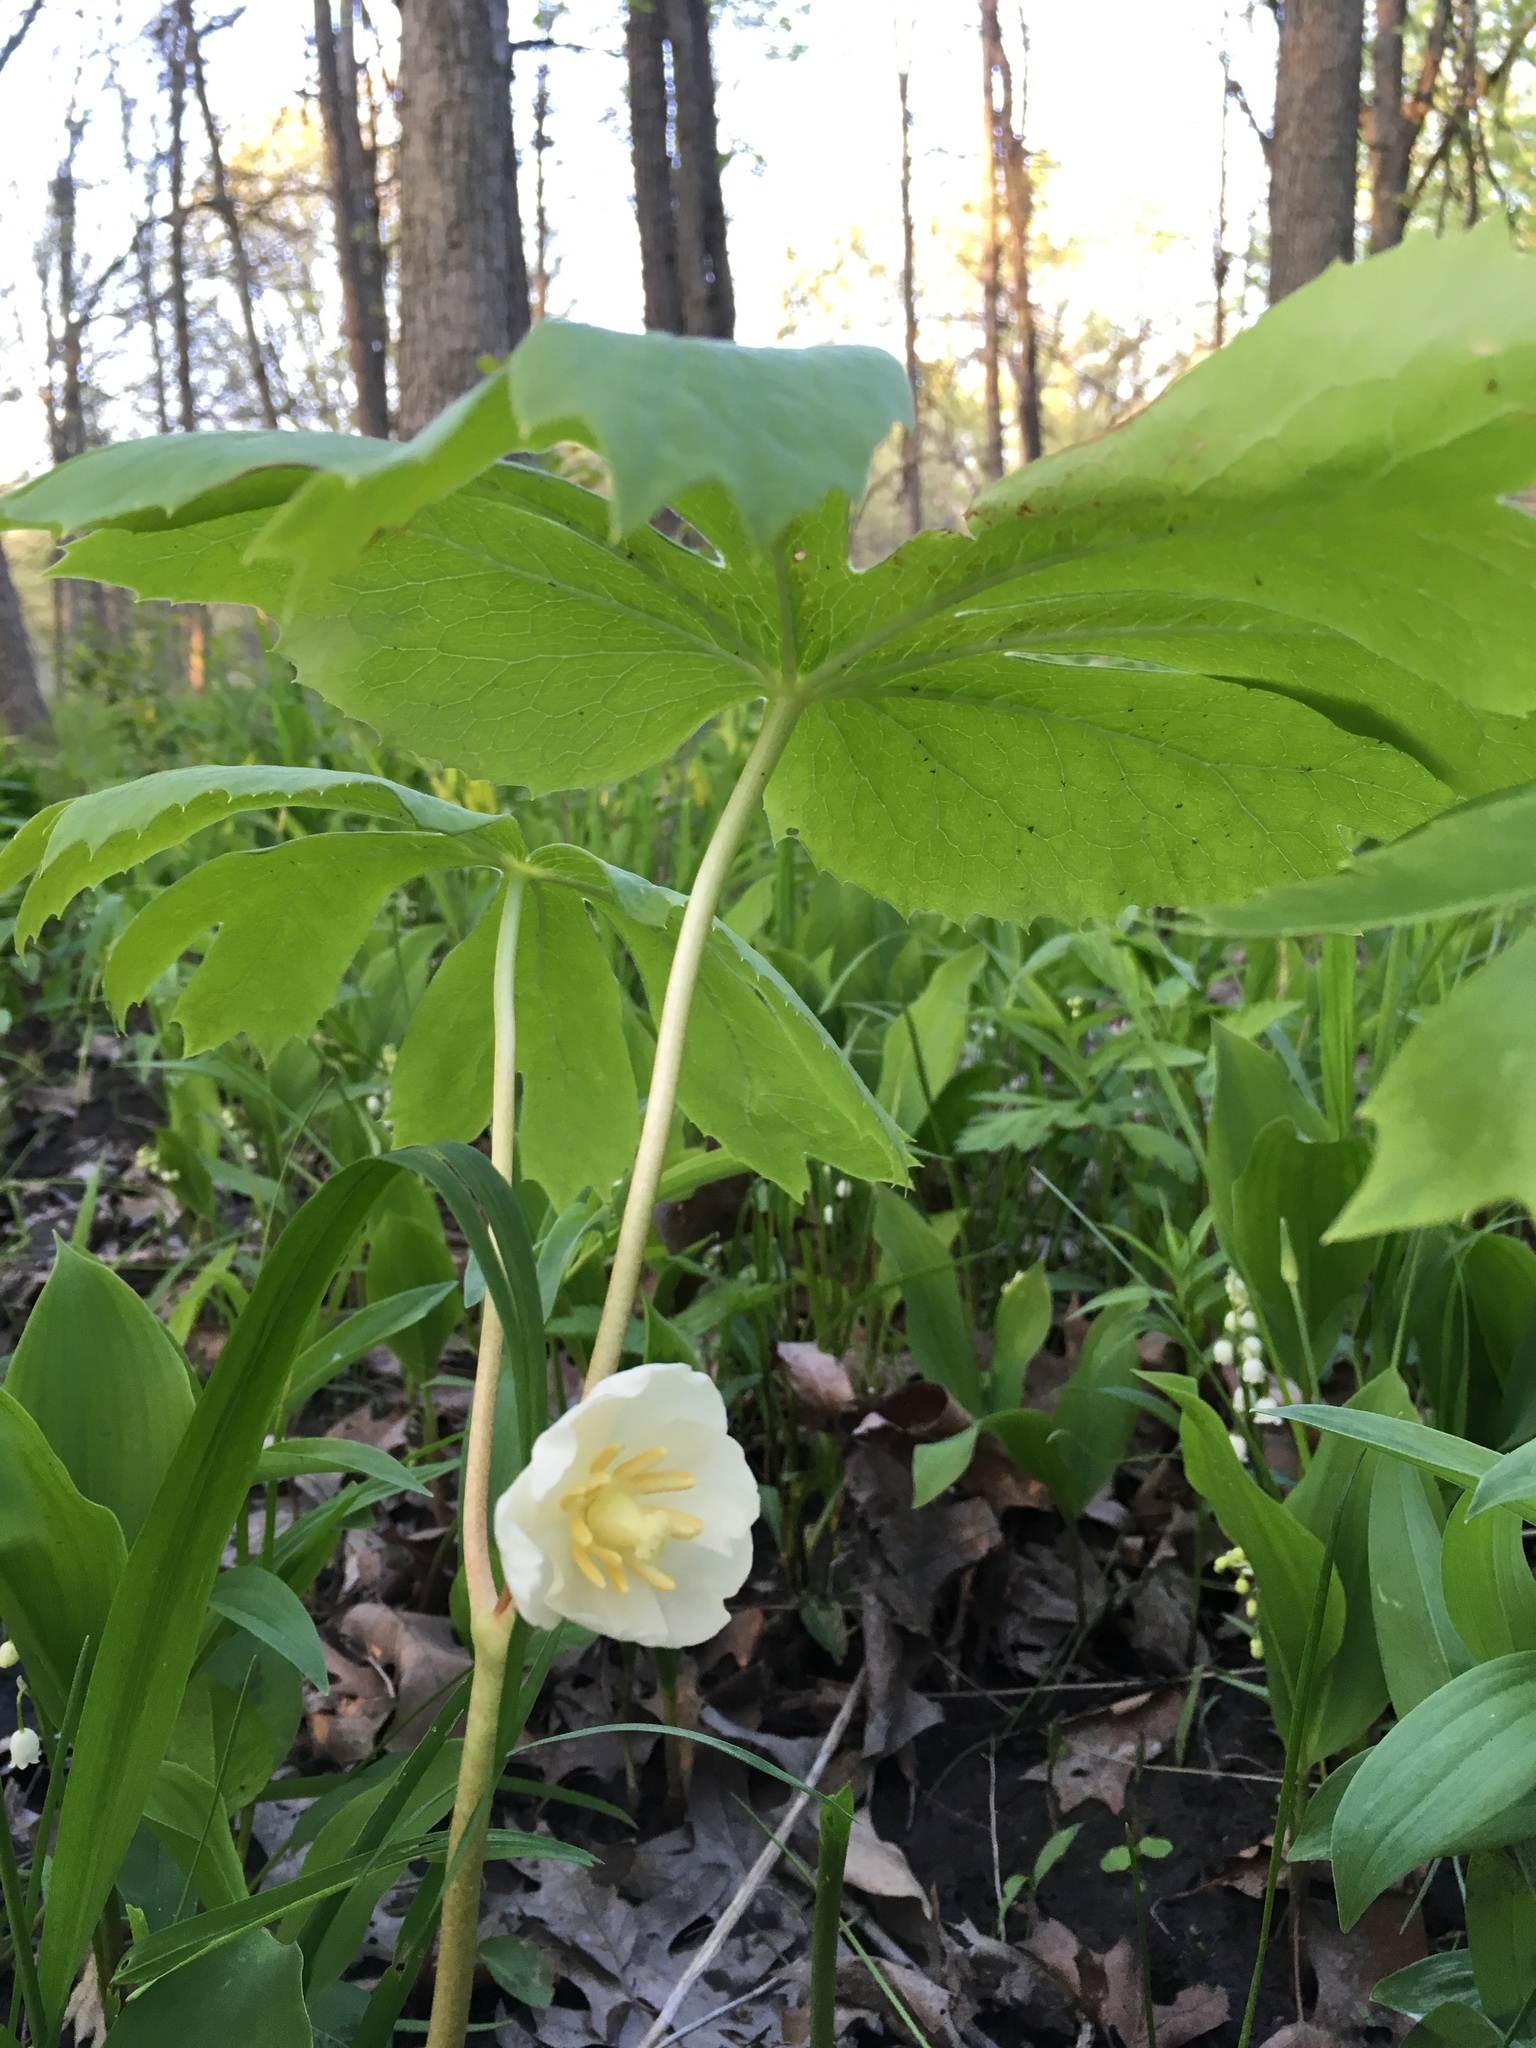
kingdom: Plantae
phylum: Tracheophyta
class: Magnoliopsida
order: Ranunculales
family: Berberidaceae
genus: Podophyllum
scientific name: Podophyllum peltatum
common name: Wild mandrake
